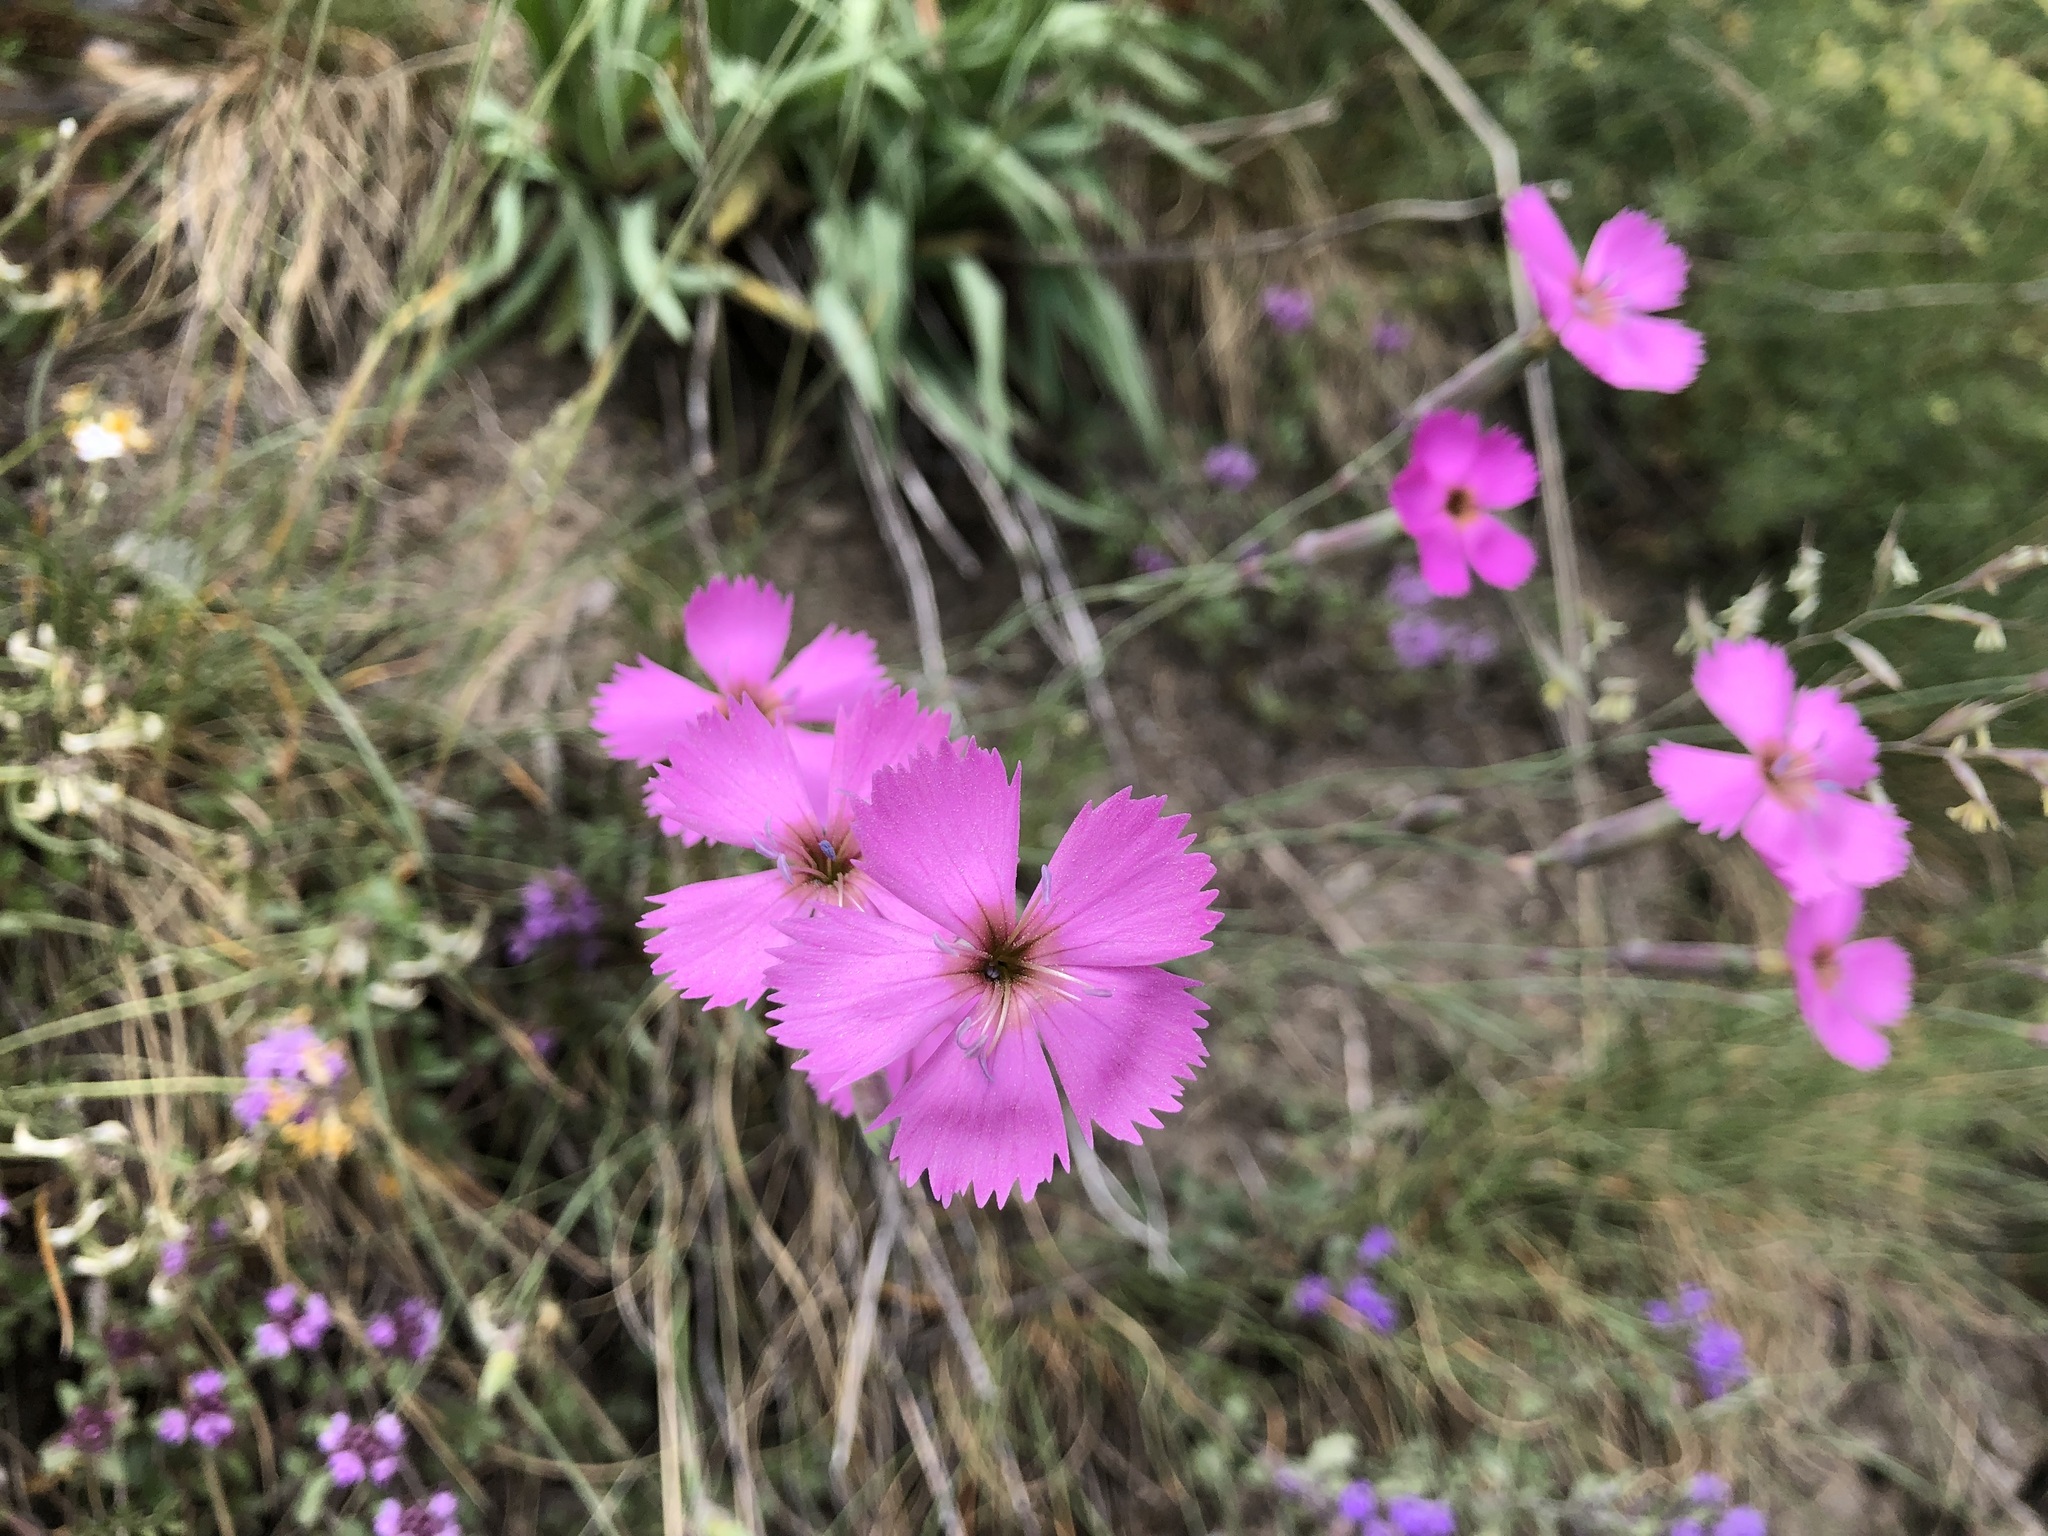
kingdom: Plantae
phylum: Tracheophyta
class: Magnoliopsida
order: Caryophyllales
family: Caryophyllaceae
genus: Dianthus
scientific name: Dianthus sylvestris
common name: Wood pink
